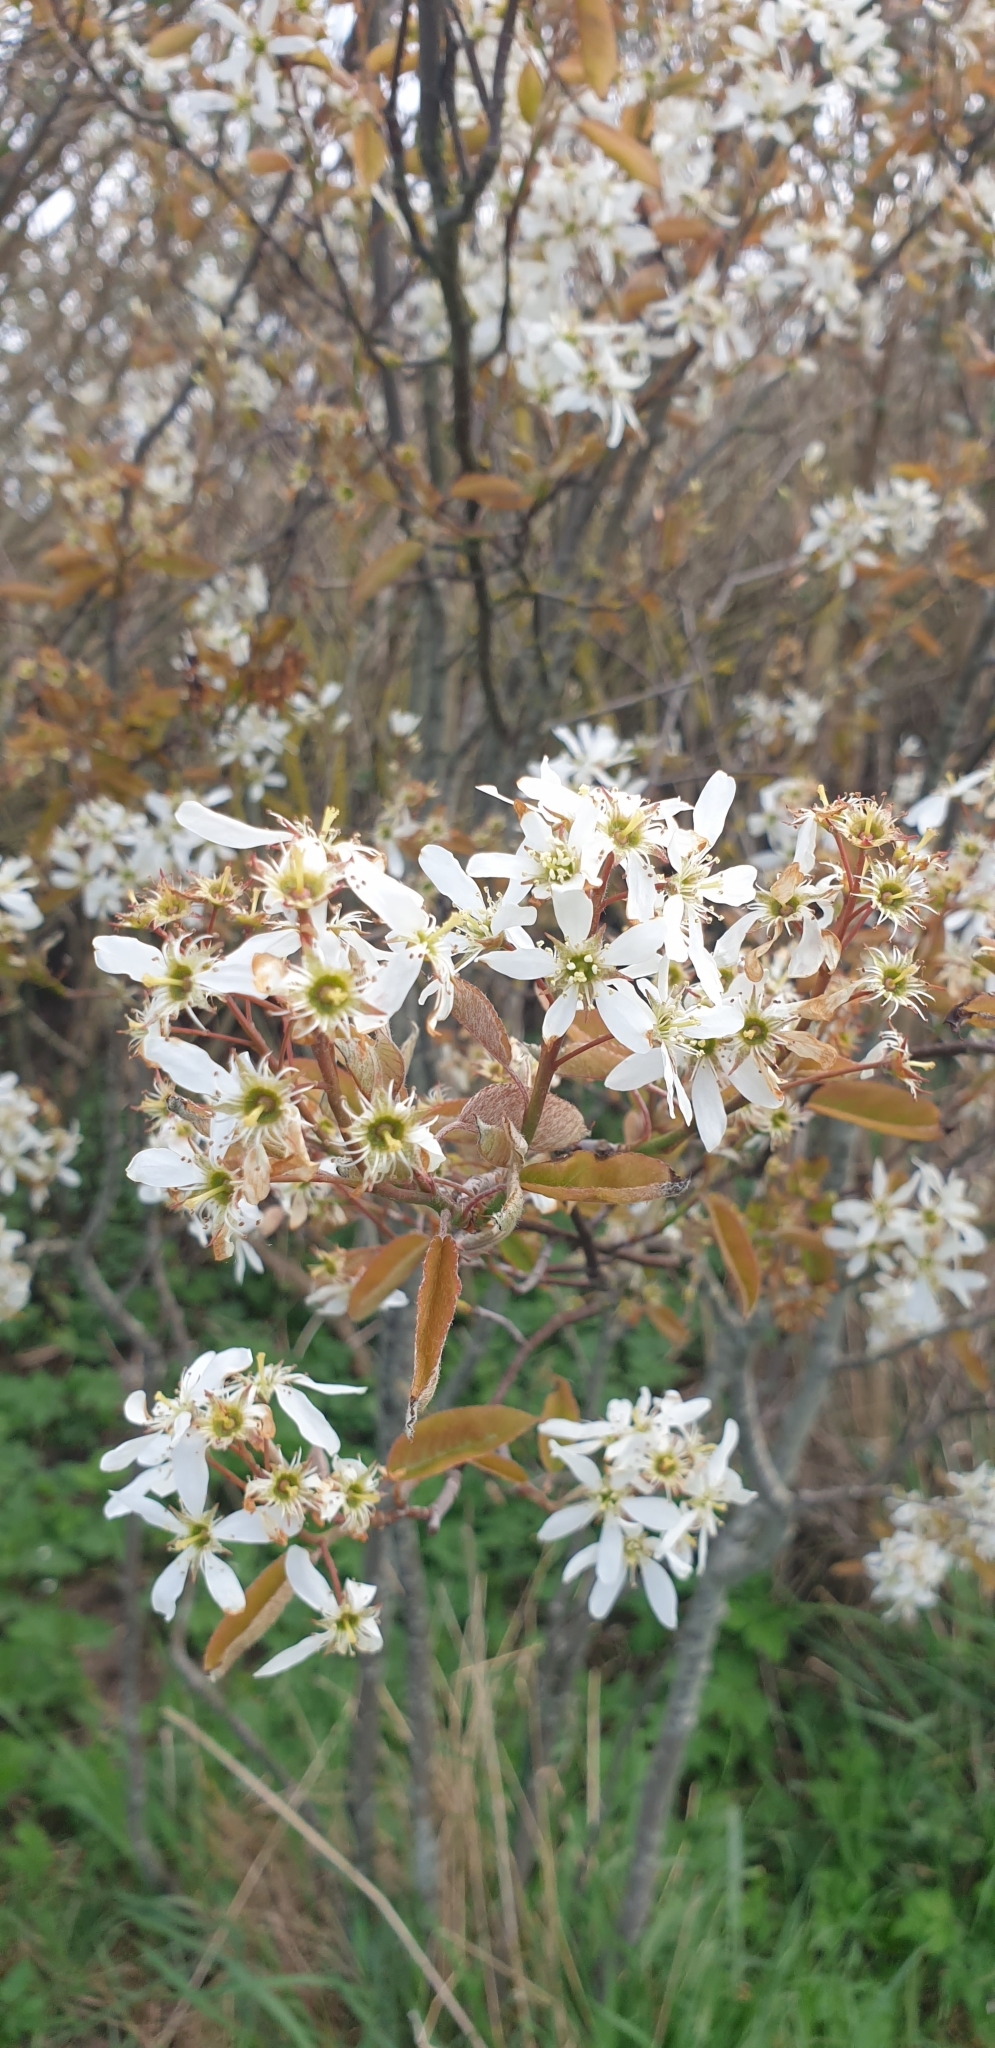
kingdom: Plantae
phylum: Tracheophyta
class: Magnoliopsida
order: Rosales
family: Rosaceae
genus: Amelanchier
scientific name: Amelanchier lamarckii
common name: Juneberry
